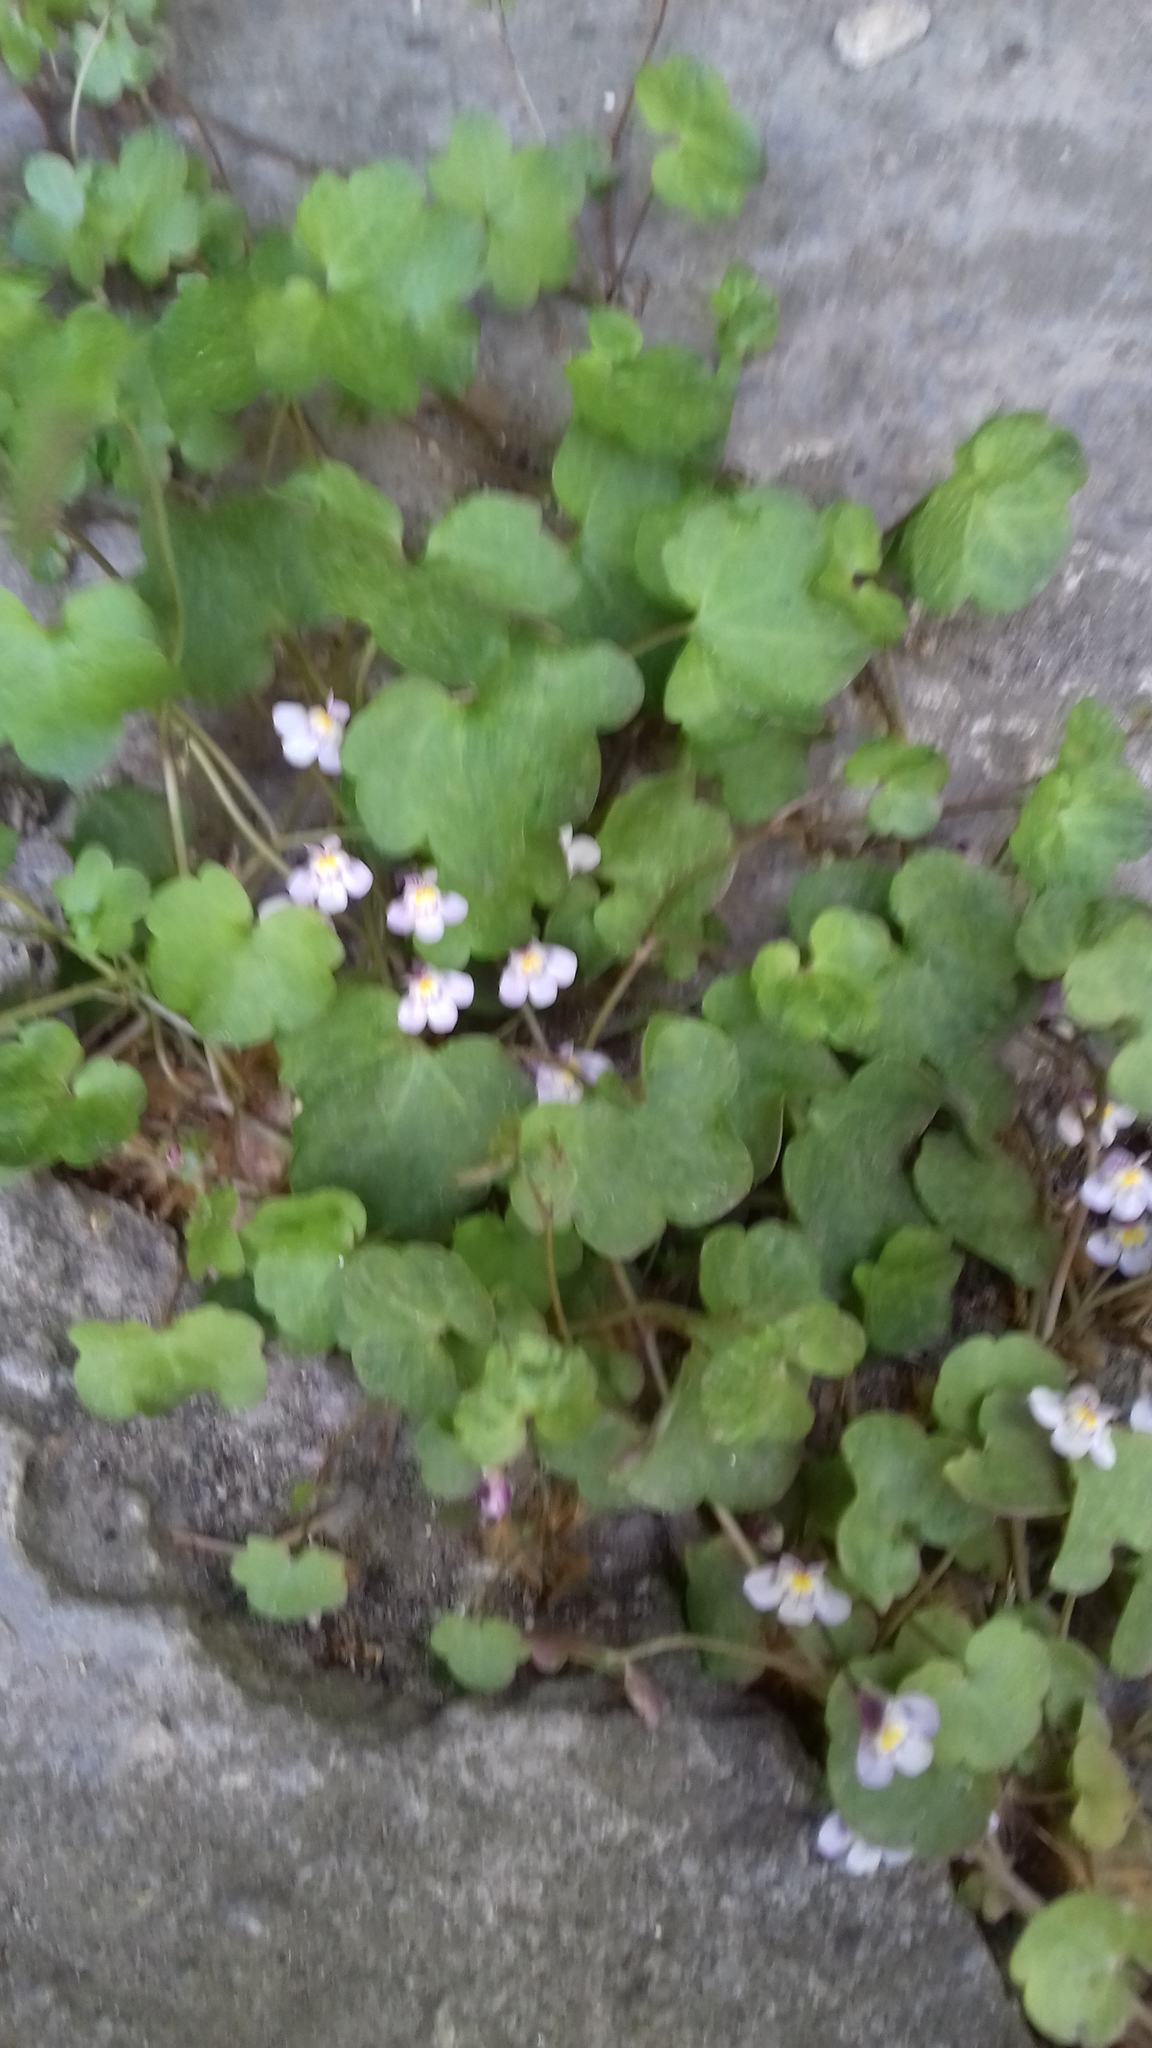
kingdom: Plantae
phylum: Tracheophyta
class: Magnoliopsida
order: Lamiales
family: Plantaginaceae
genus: Cymbalaria
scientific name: Cymbalaria muralis
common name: Ivy-leaved toadflax
